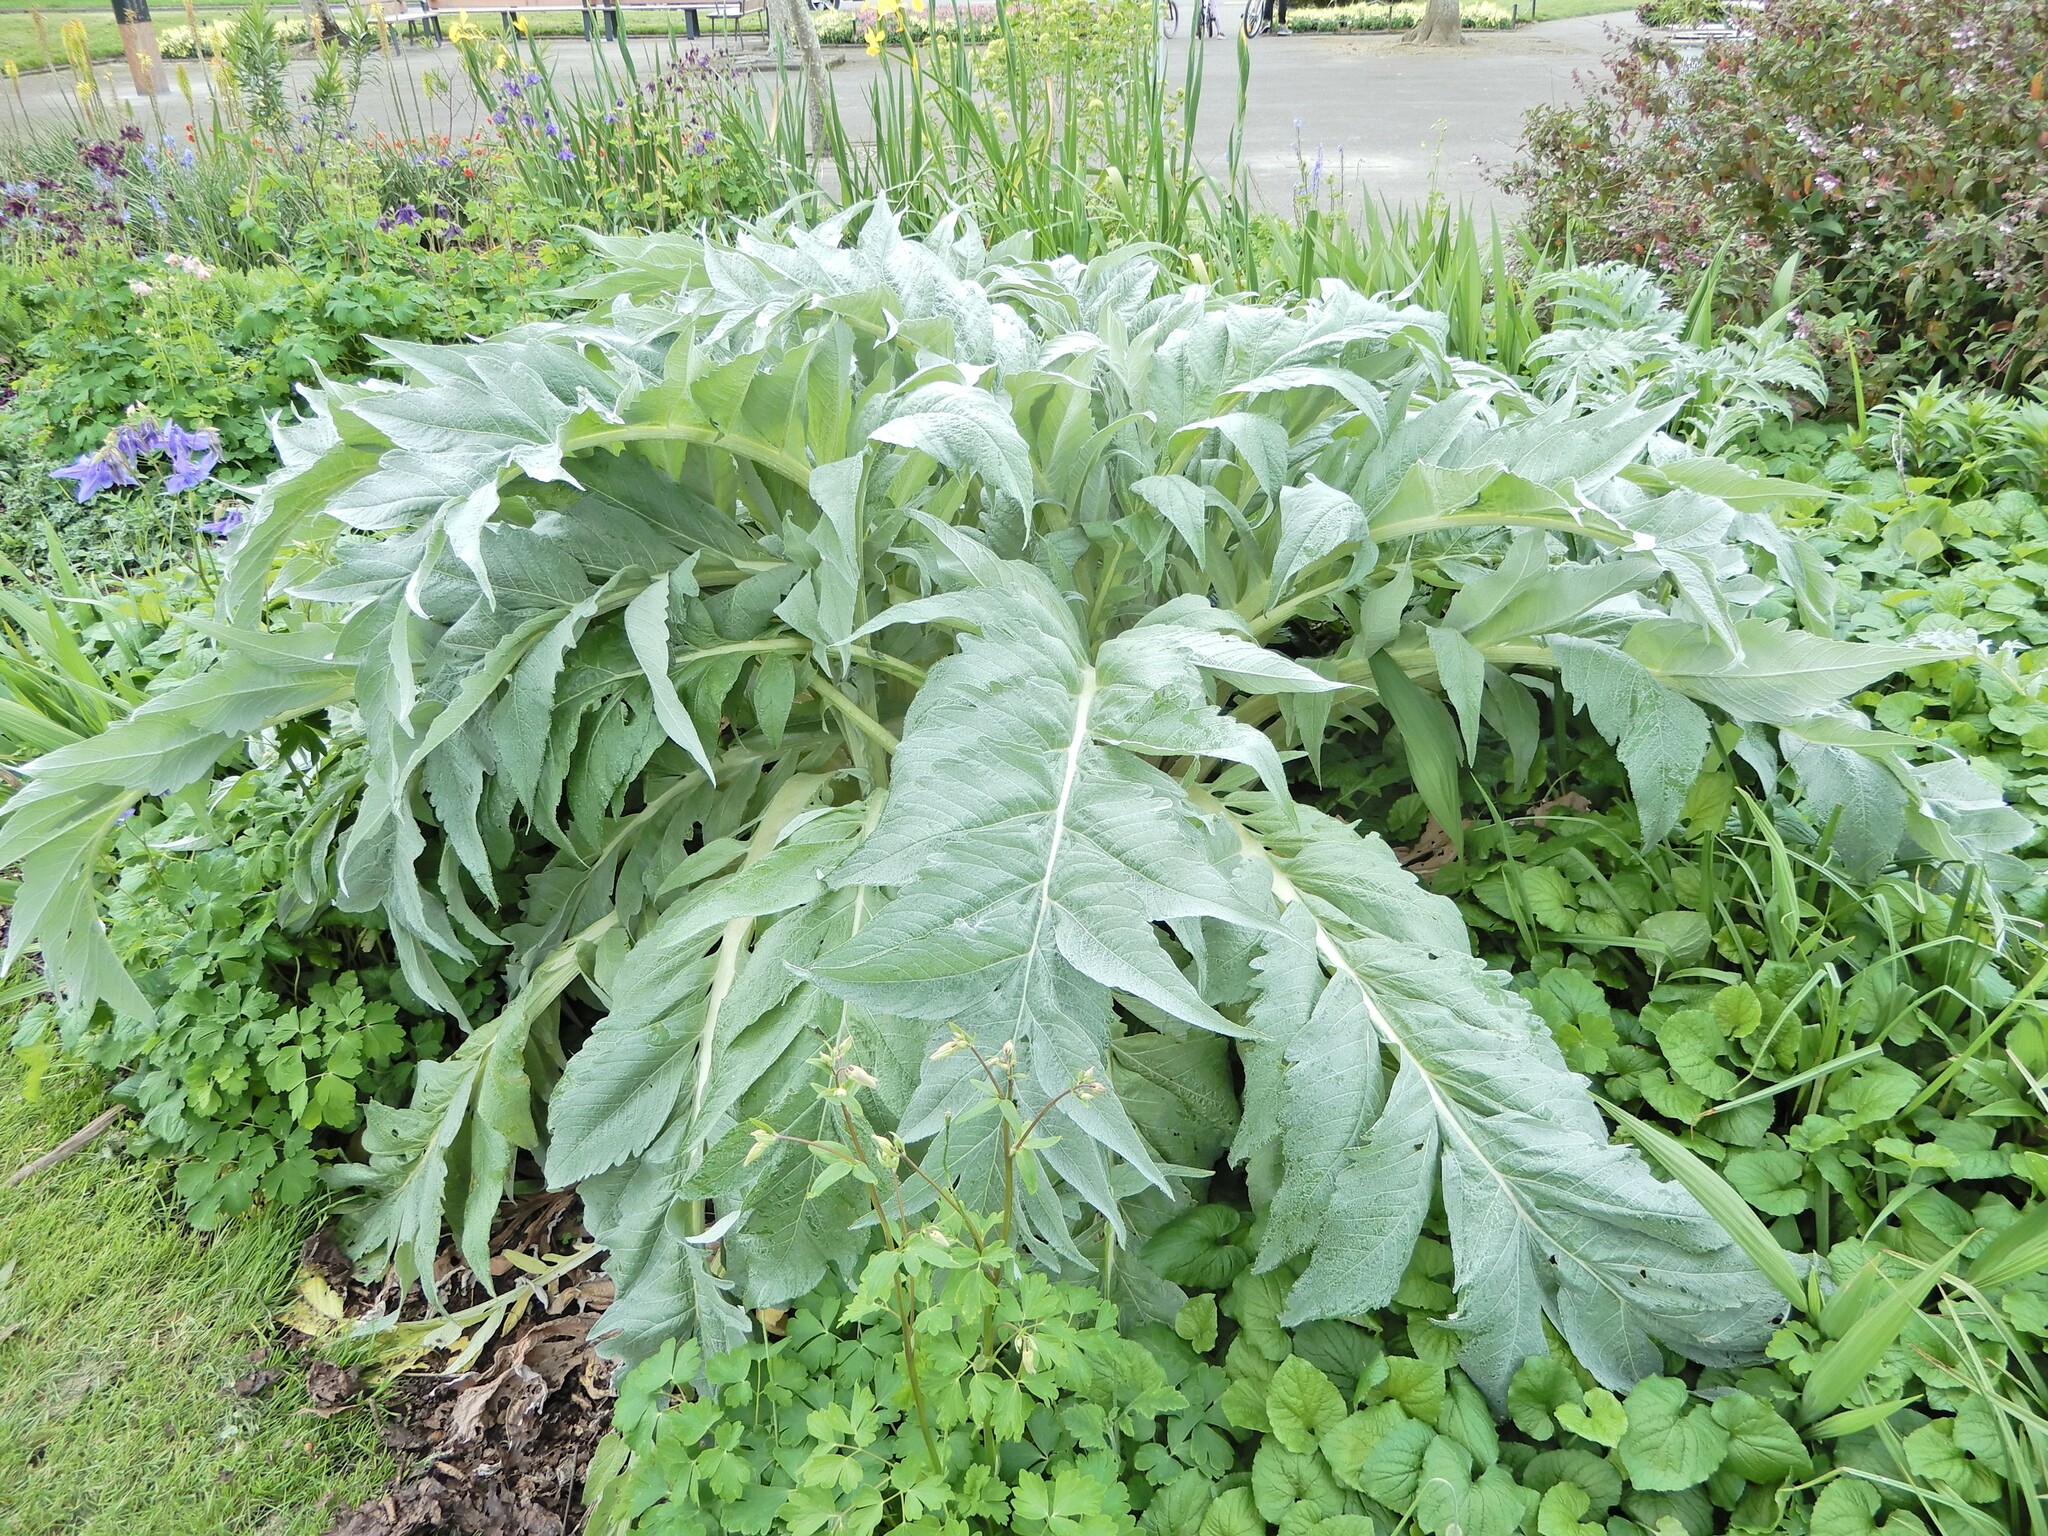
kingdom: Plantae
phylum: Tracheophyta
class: Magnoliopsida
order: Asterales
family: Asteraceae
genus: Cynara
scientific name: Cynara scolymus
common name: Globe artichoke
